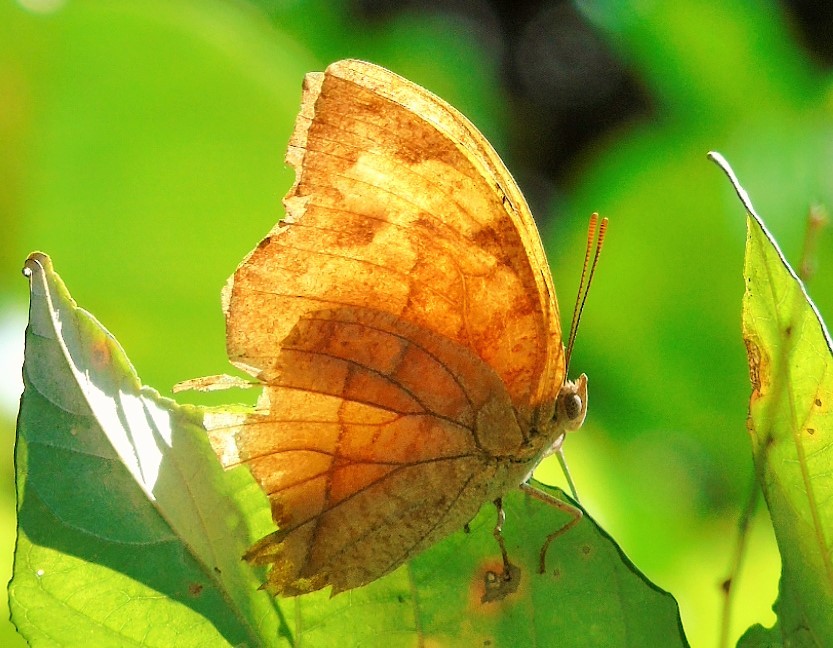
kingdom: Animalia
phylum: Arthropoda
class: Insecta
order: Lepidoptera
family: Nymphalidae
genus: Fountainea
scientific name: Fountainea
